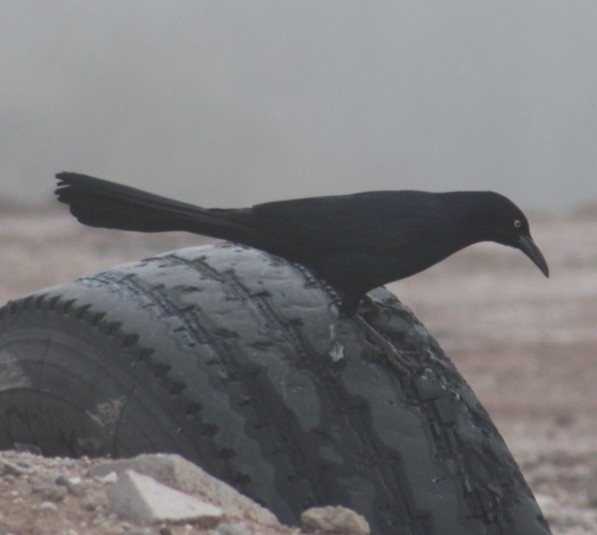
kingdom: Animalia
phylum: Chordata
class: Aves
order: Passeriformes
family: Icteridae
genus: Quiscalus
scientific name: Quiscalus mexicanus
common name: Great-tailed grackle
